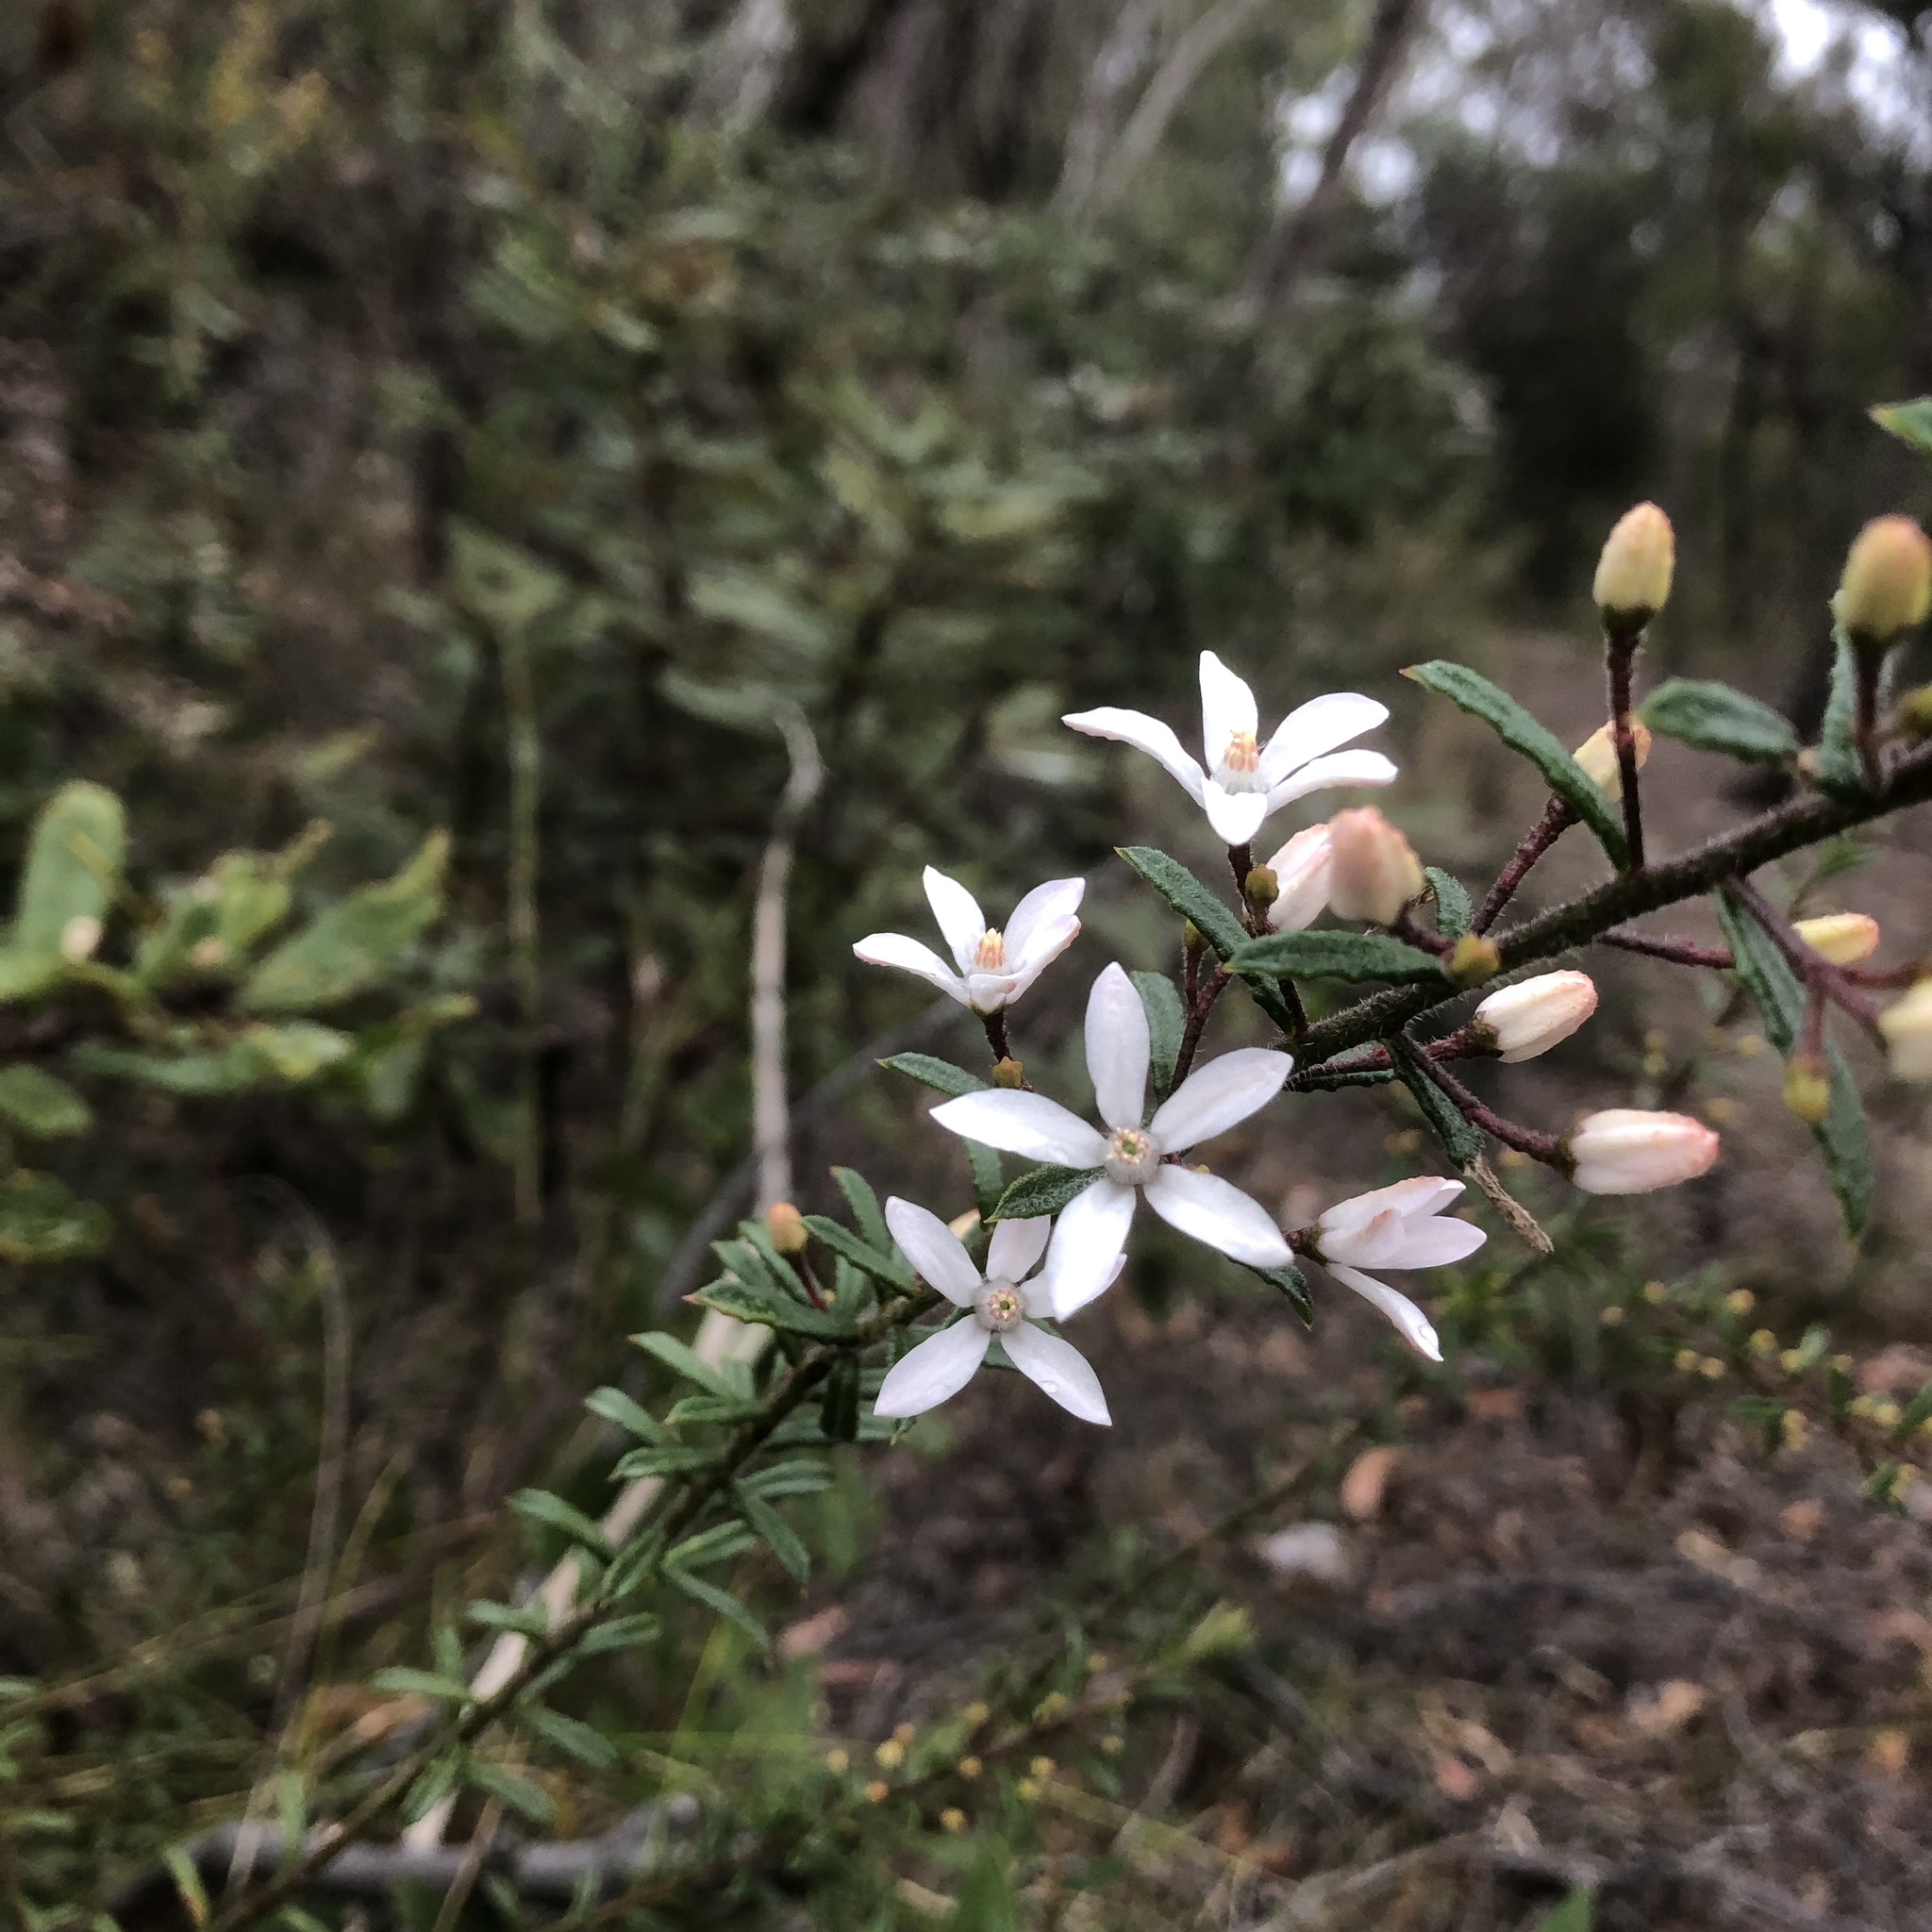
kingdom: Plantae
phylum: Tracheophyta
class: Magnoliopsida
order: Sapindales
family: Rutaceae
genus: Philotheca
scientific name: Philotheca hispidula
